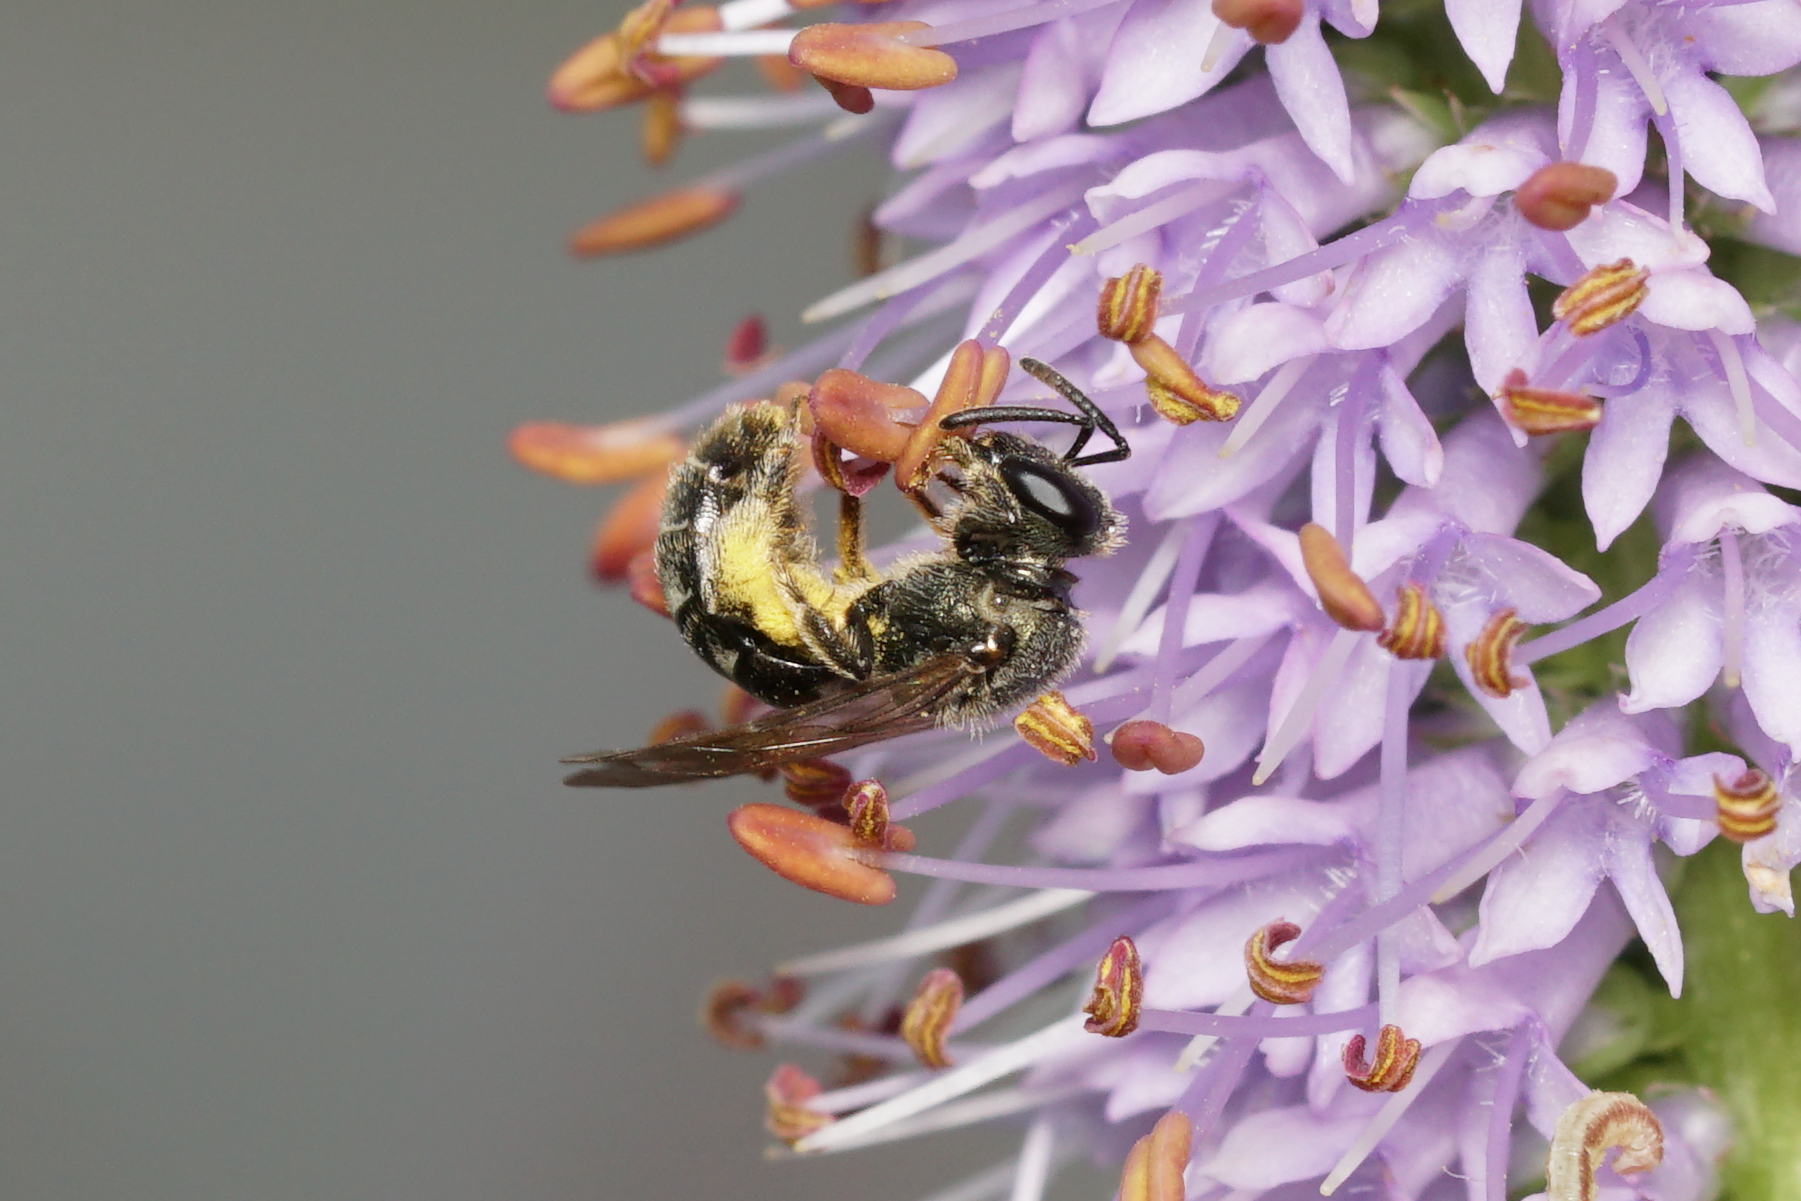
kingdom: Animalia
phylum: Arthropoda
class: Insecta
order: Hymenoptera
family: Halictidae
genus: Dialictus
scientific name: Dialictus
